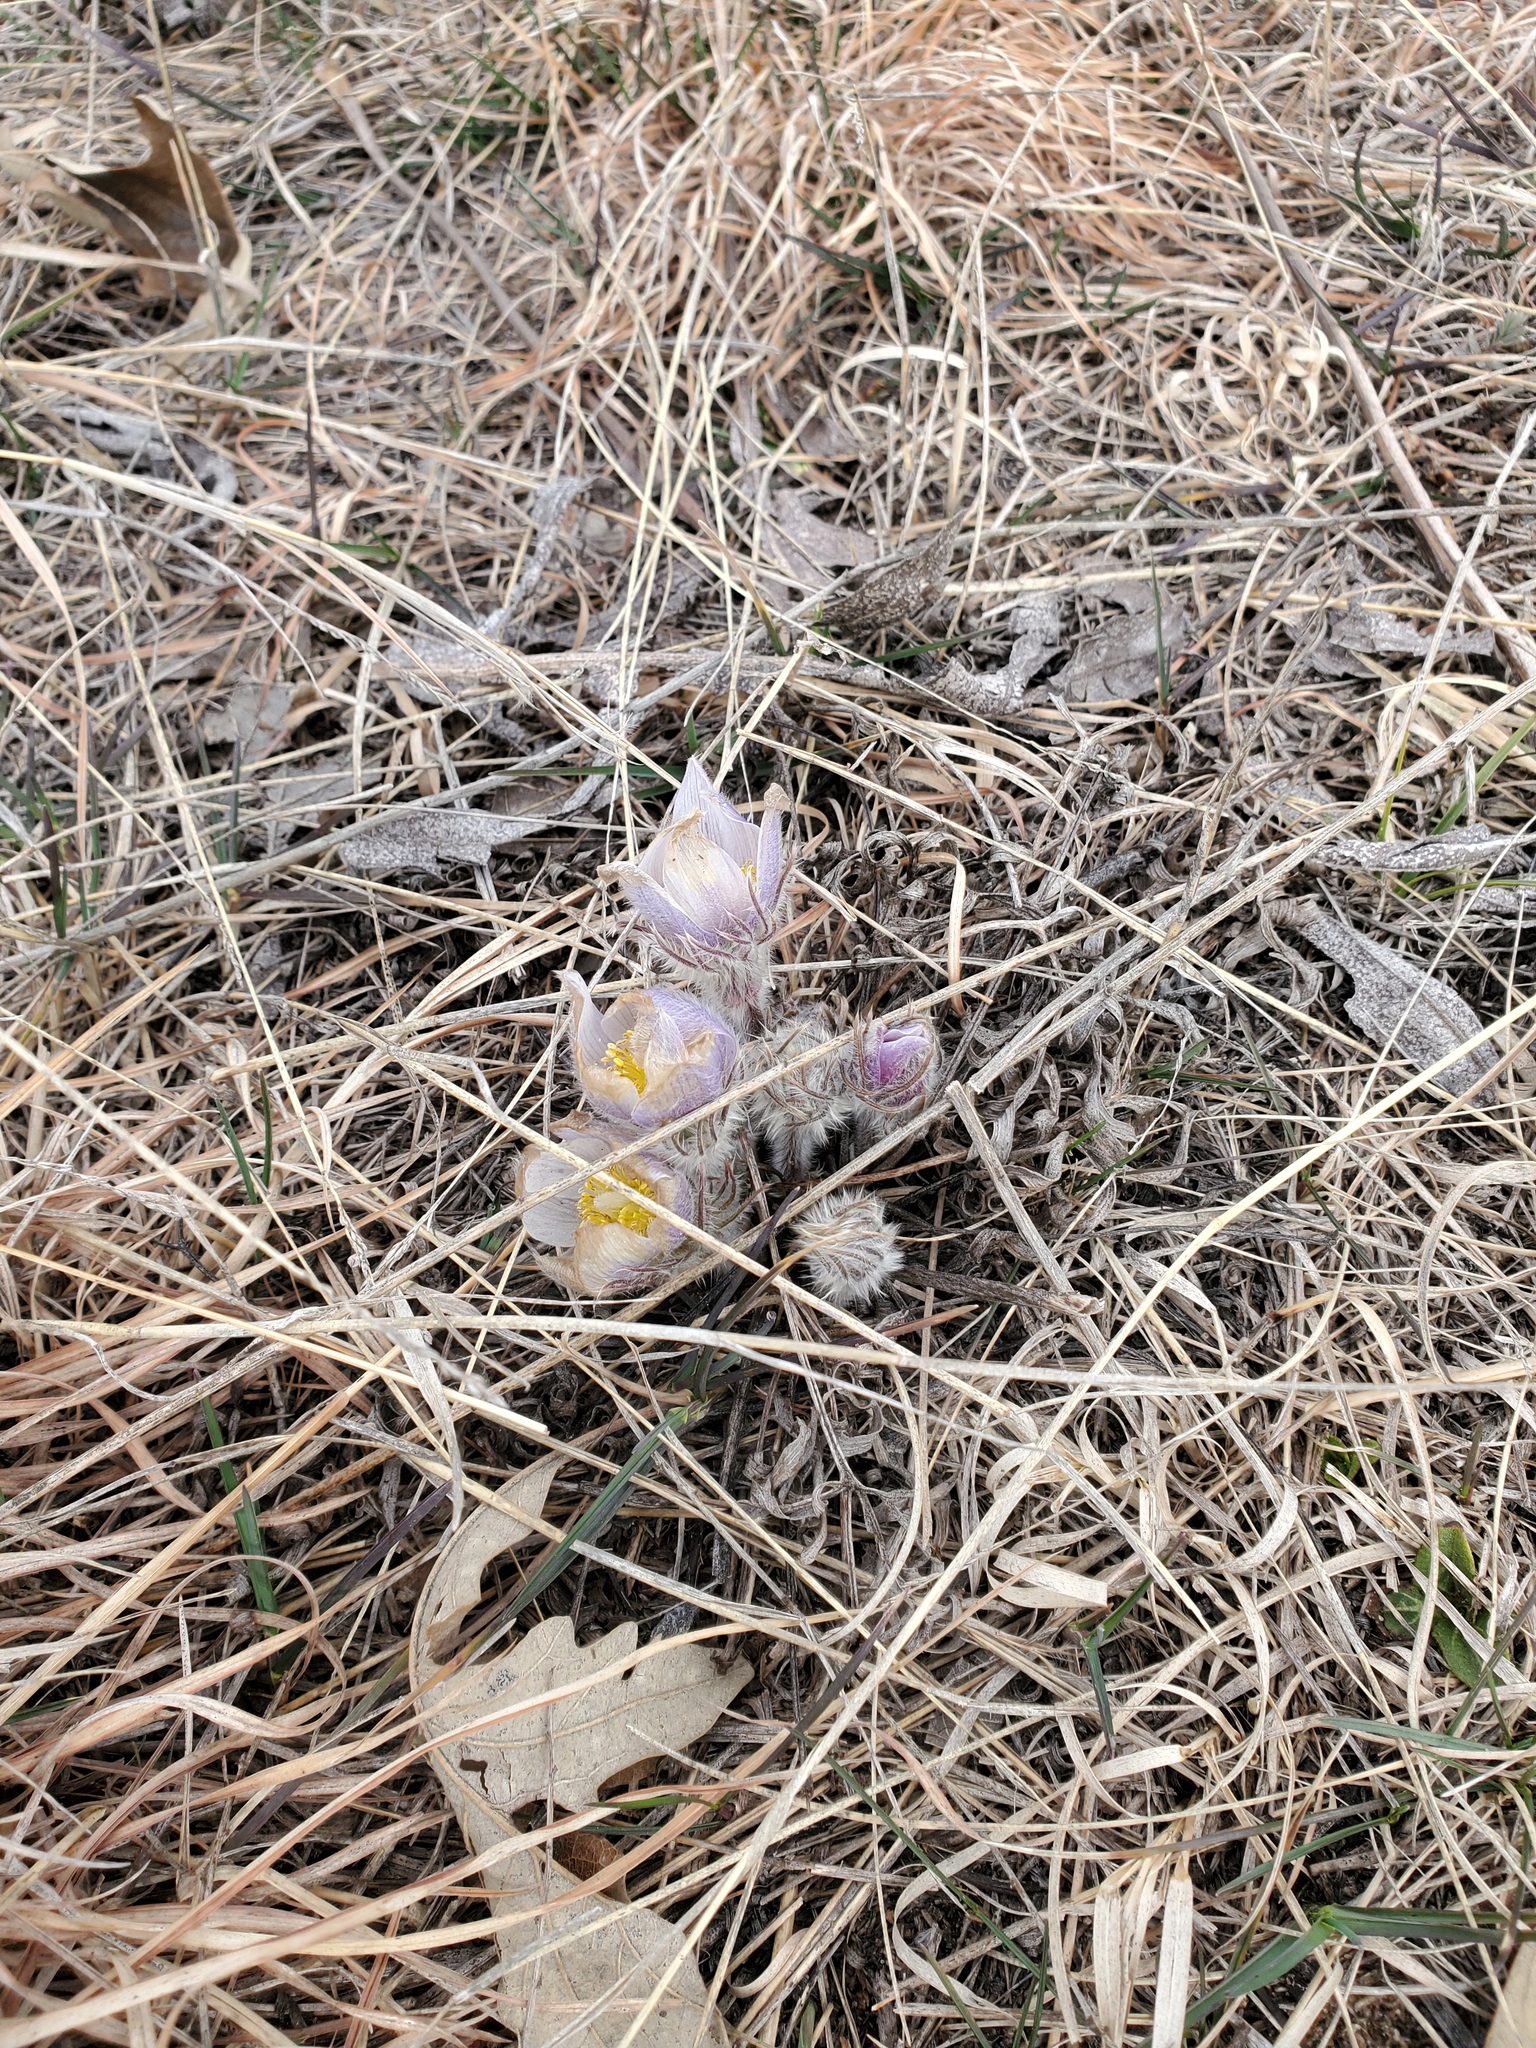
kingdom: Plantae
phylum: Tracheophyta
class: Magnoliopsida
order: Ranunculales
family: Ranunculaceae
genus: Pulsatilla
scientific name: Pulsatilla nuttalliana
